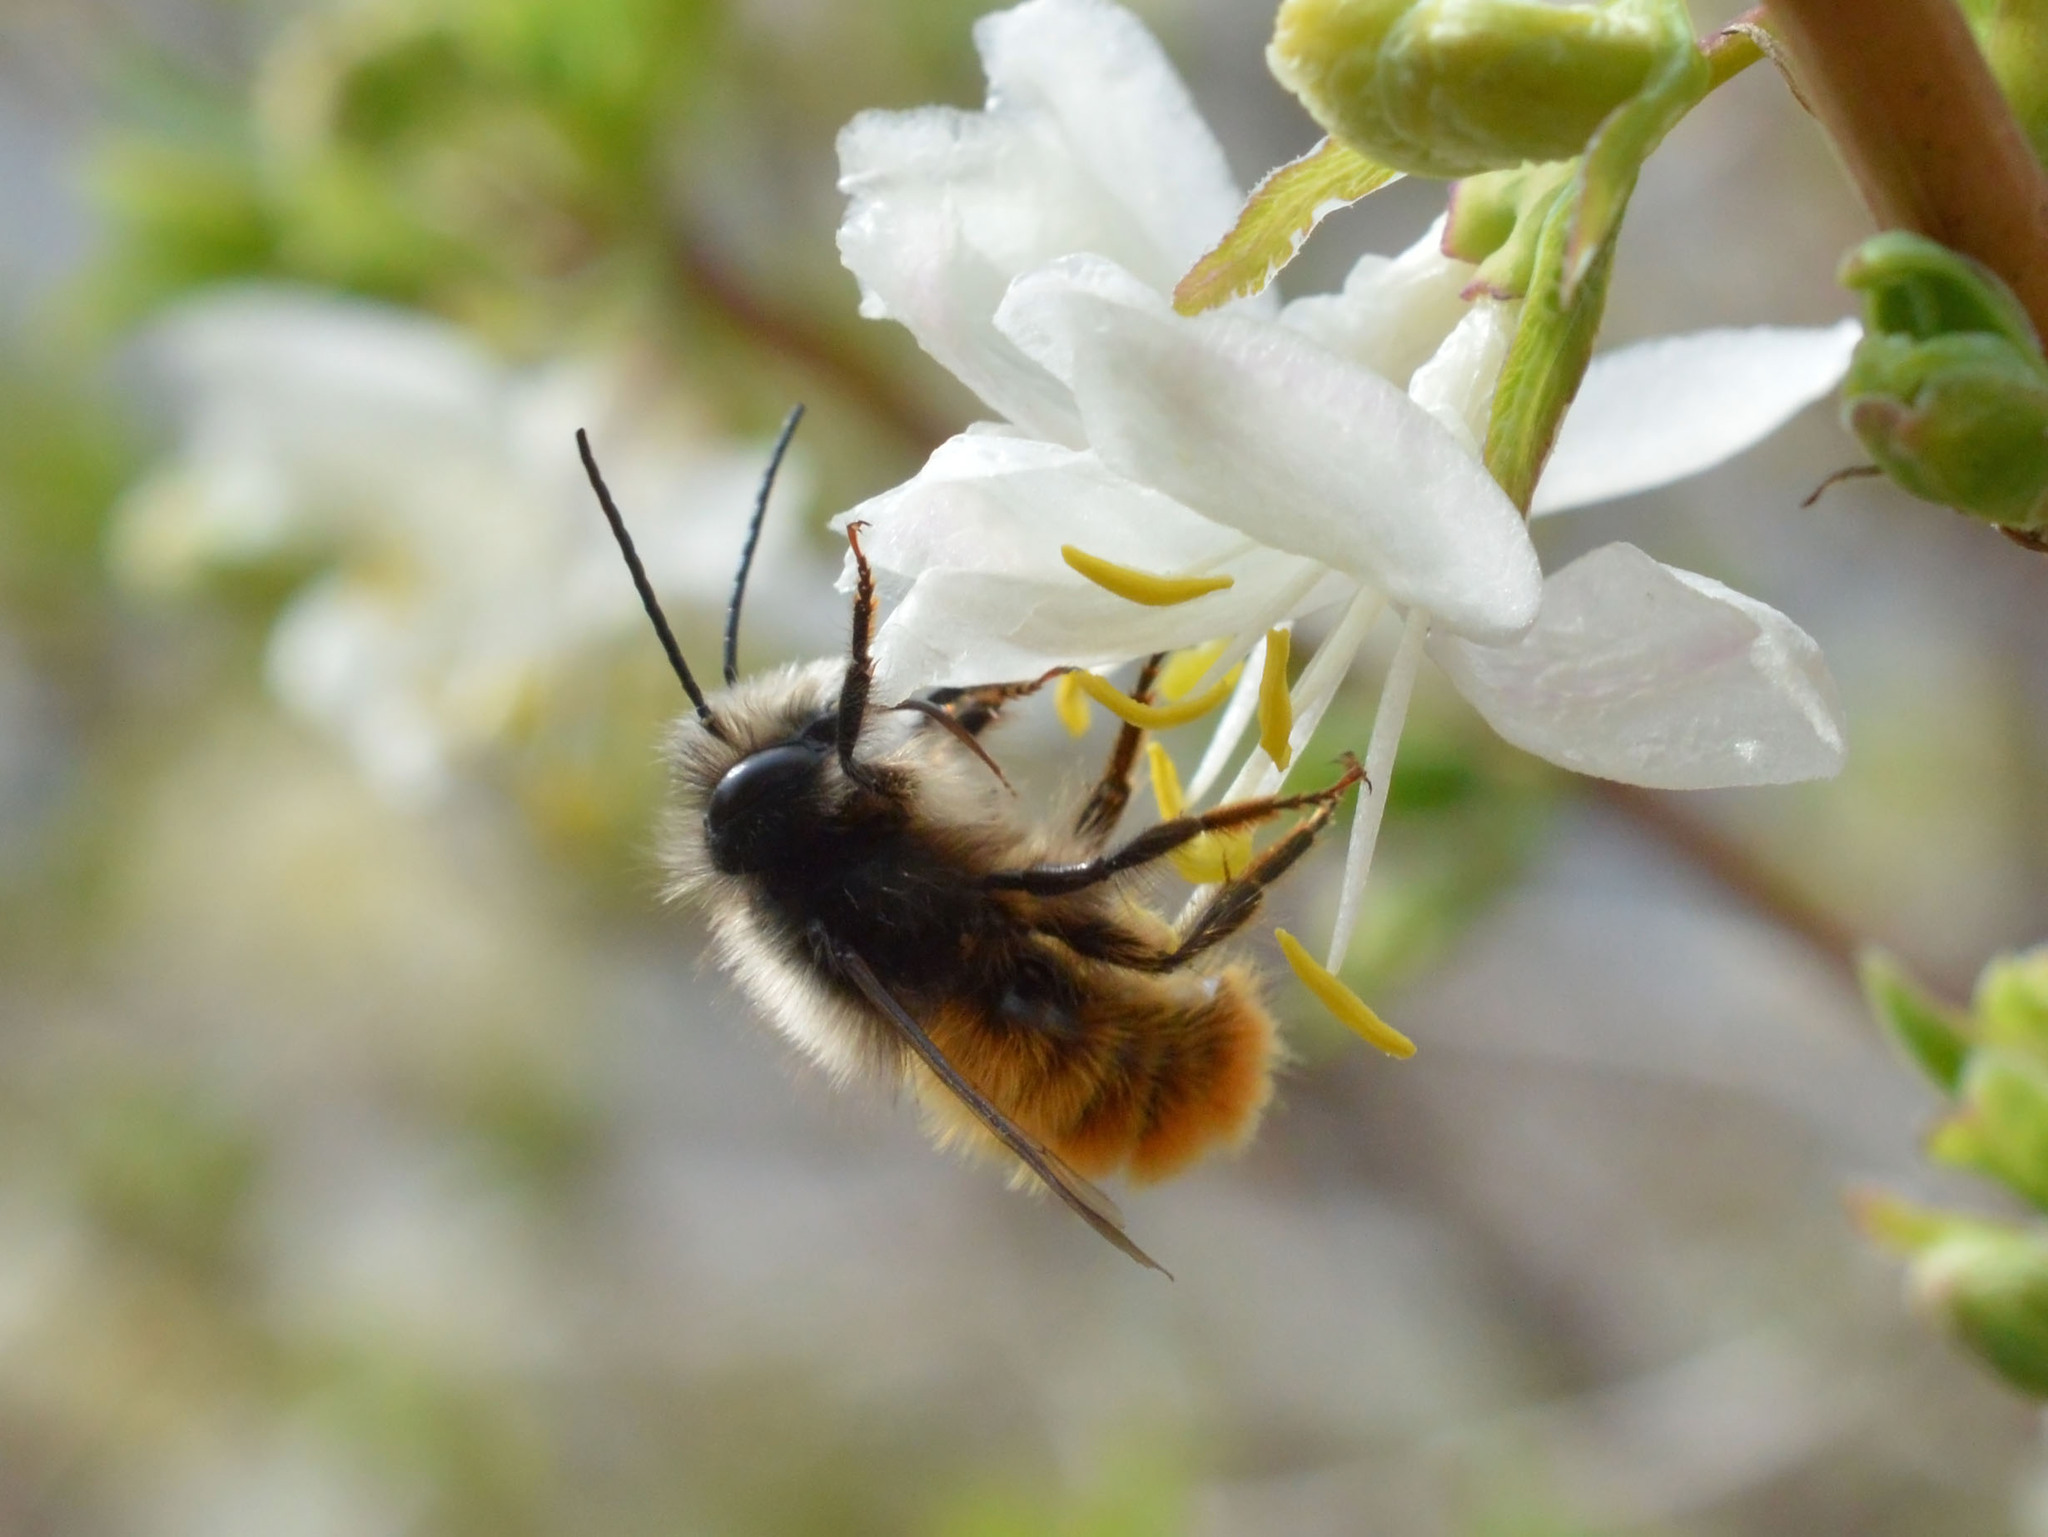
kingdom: Animalia
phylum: Arthropoda
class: Insecta
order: Hymenoptera
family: Megachilidae
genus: Osmia
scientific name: Osmia cornuta
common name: Mason bee
